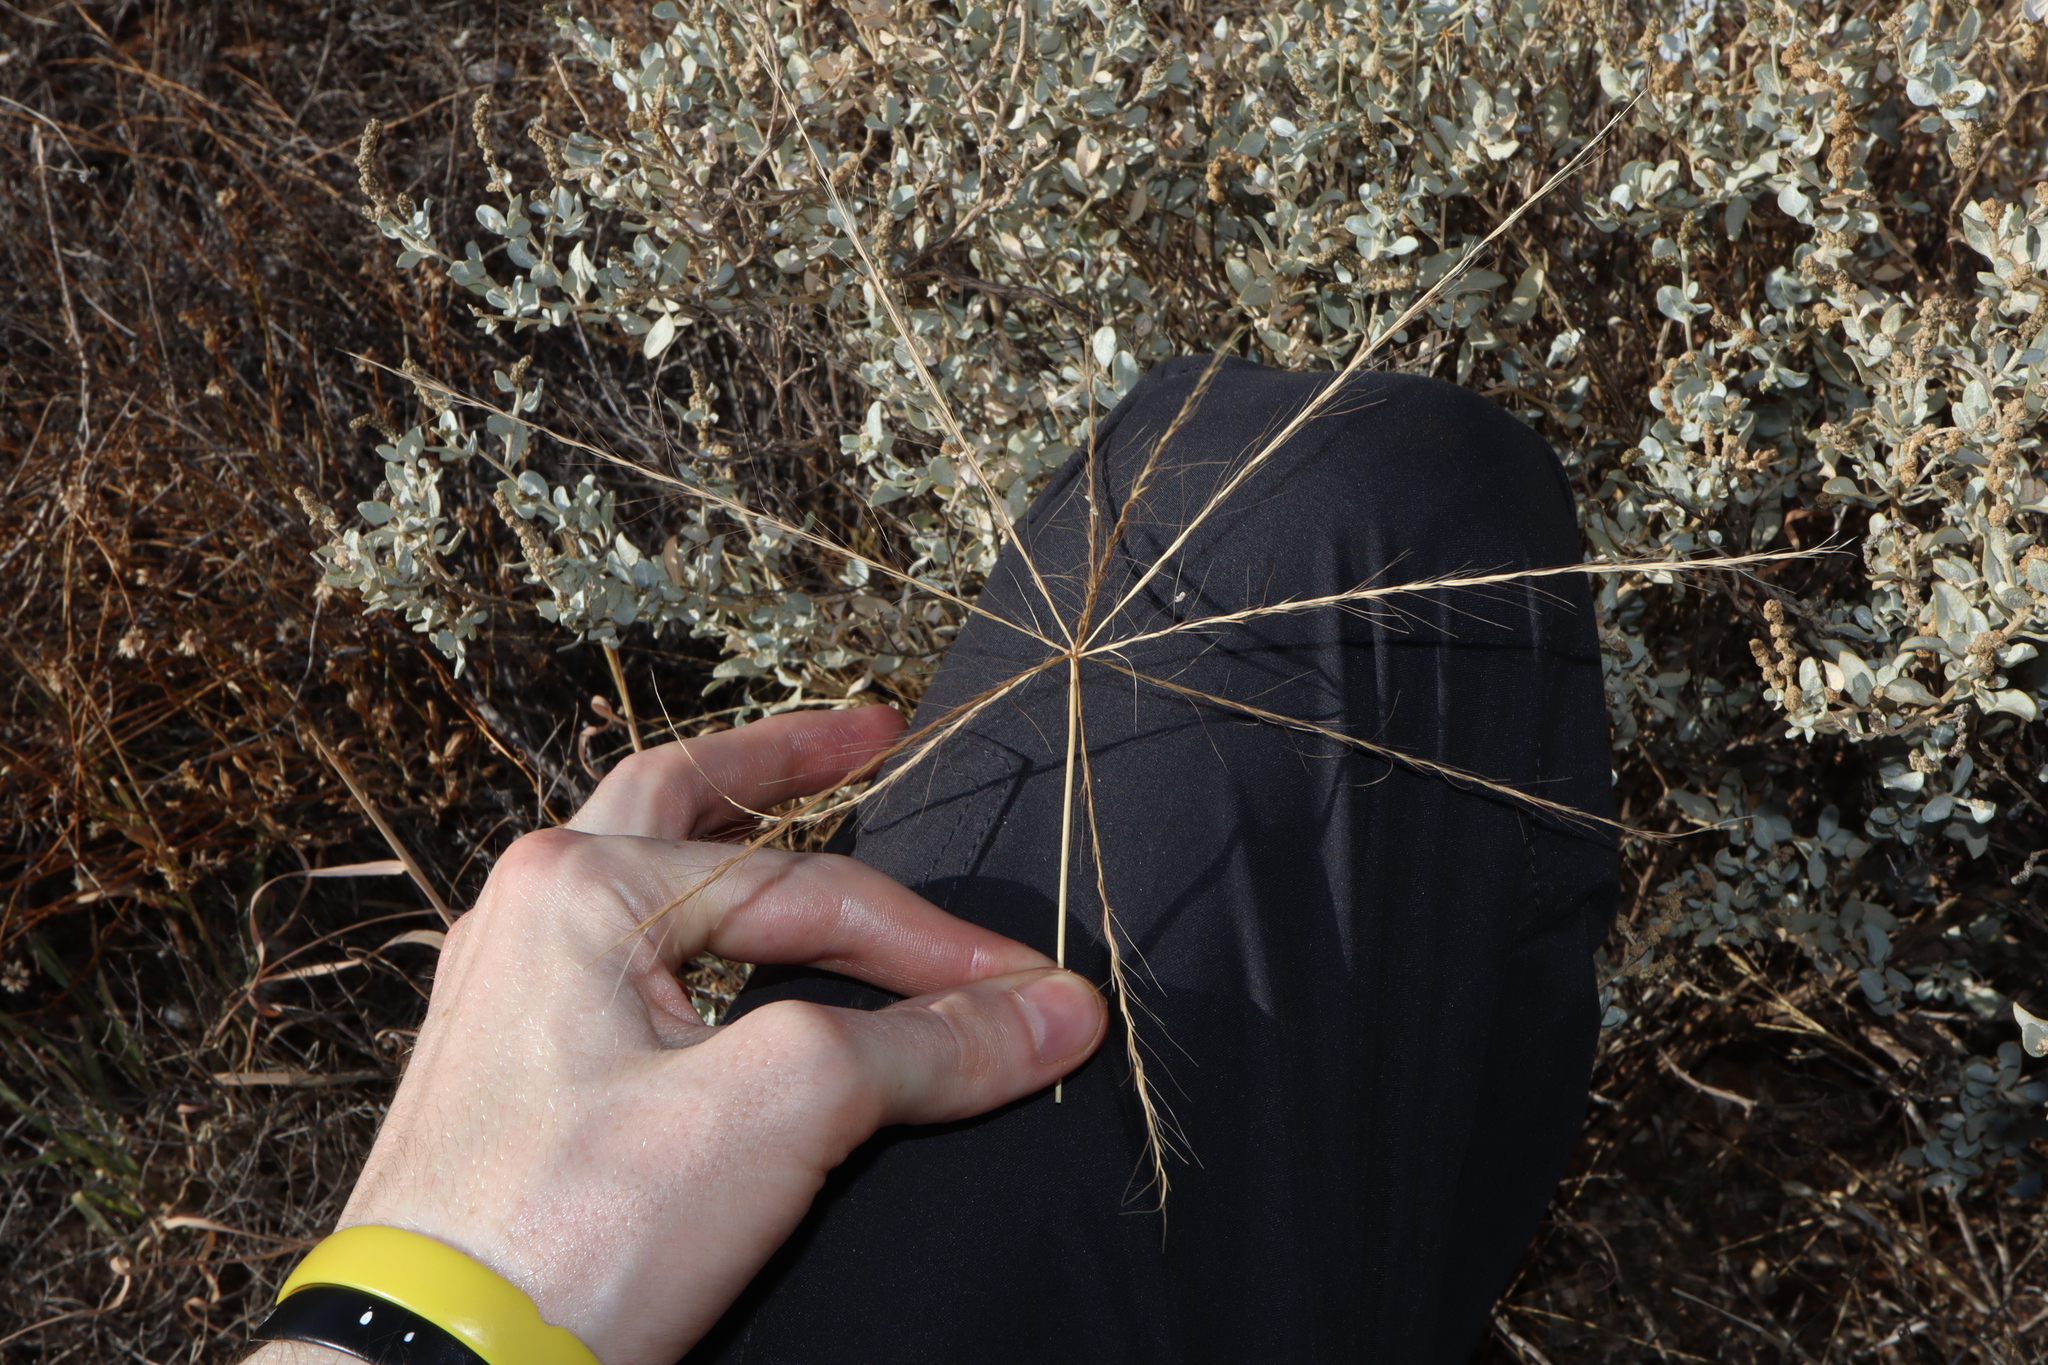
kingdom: Plantae
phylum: Tracheophyta
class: Liliopsida
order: Poales
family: Poaceae
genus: Enteropogon
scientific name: Enteropogon acicularis
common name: Curly windmill grass
